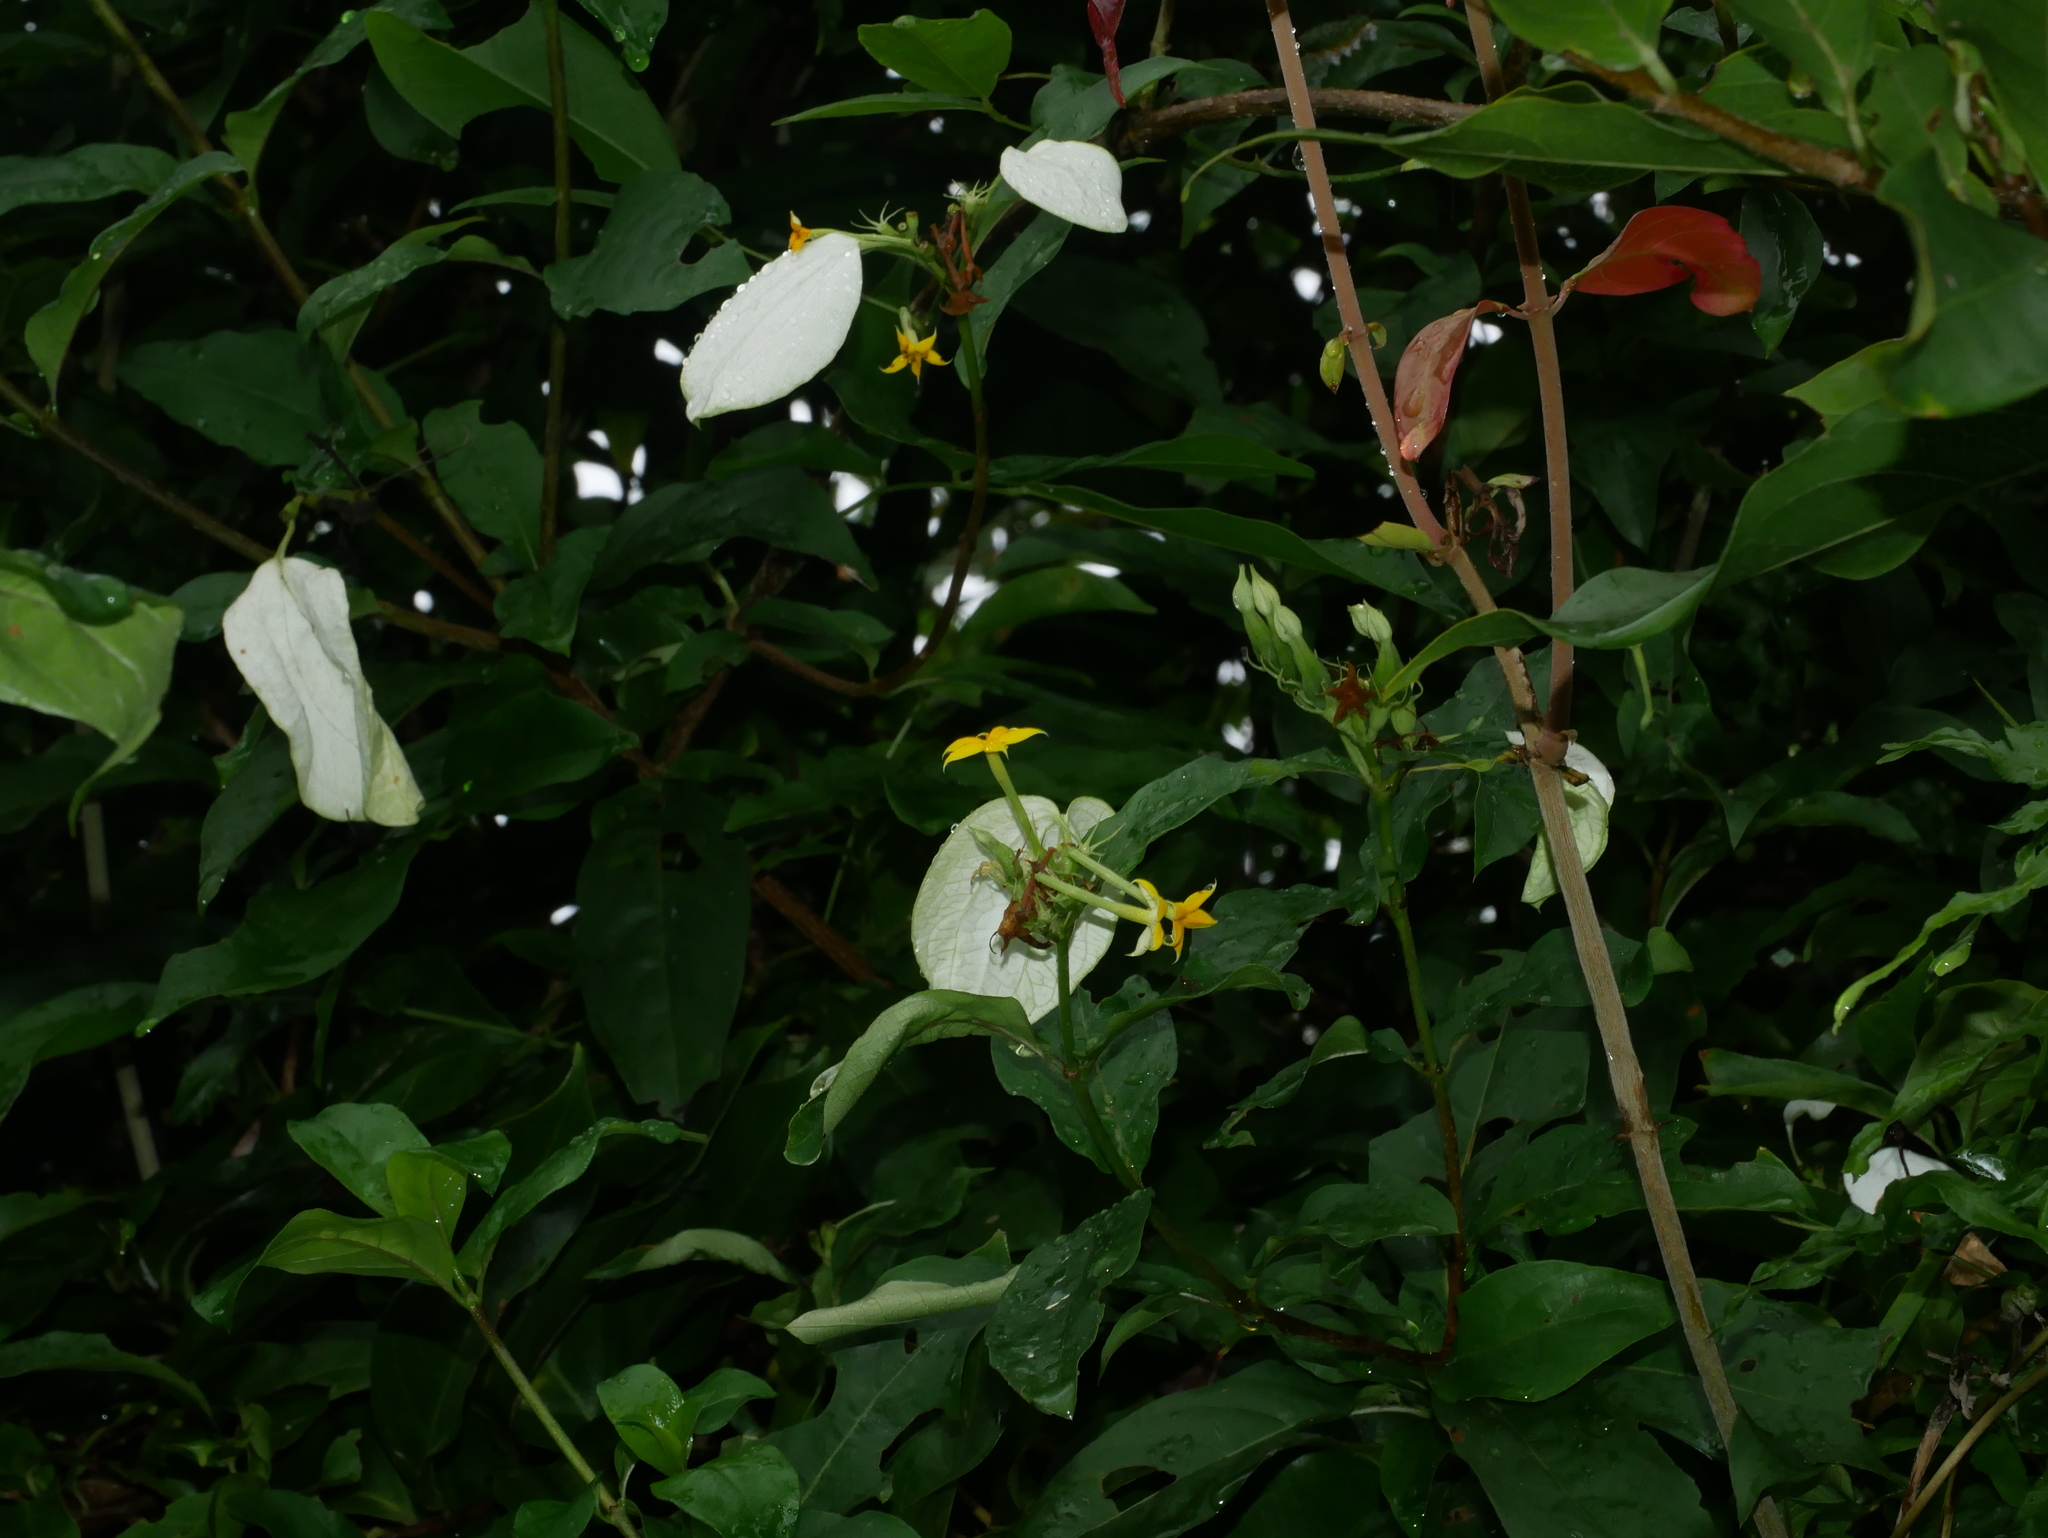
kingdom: Plantae
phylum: Tracheophyta
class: Magnoliopsida
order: Gentianales
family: Rubiaceae
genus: Mussaenda
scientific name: Mussaenda formosana
